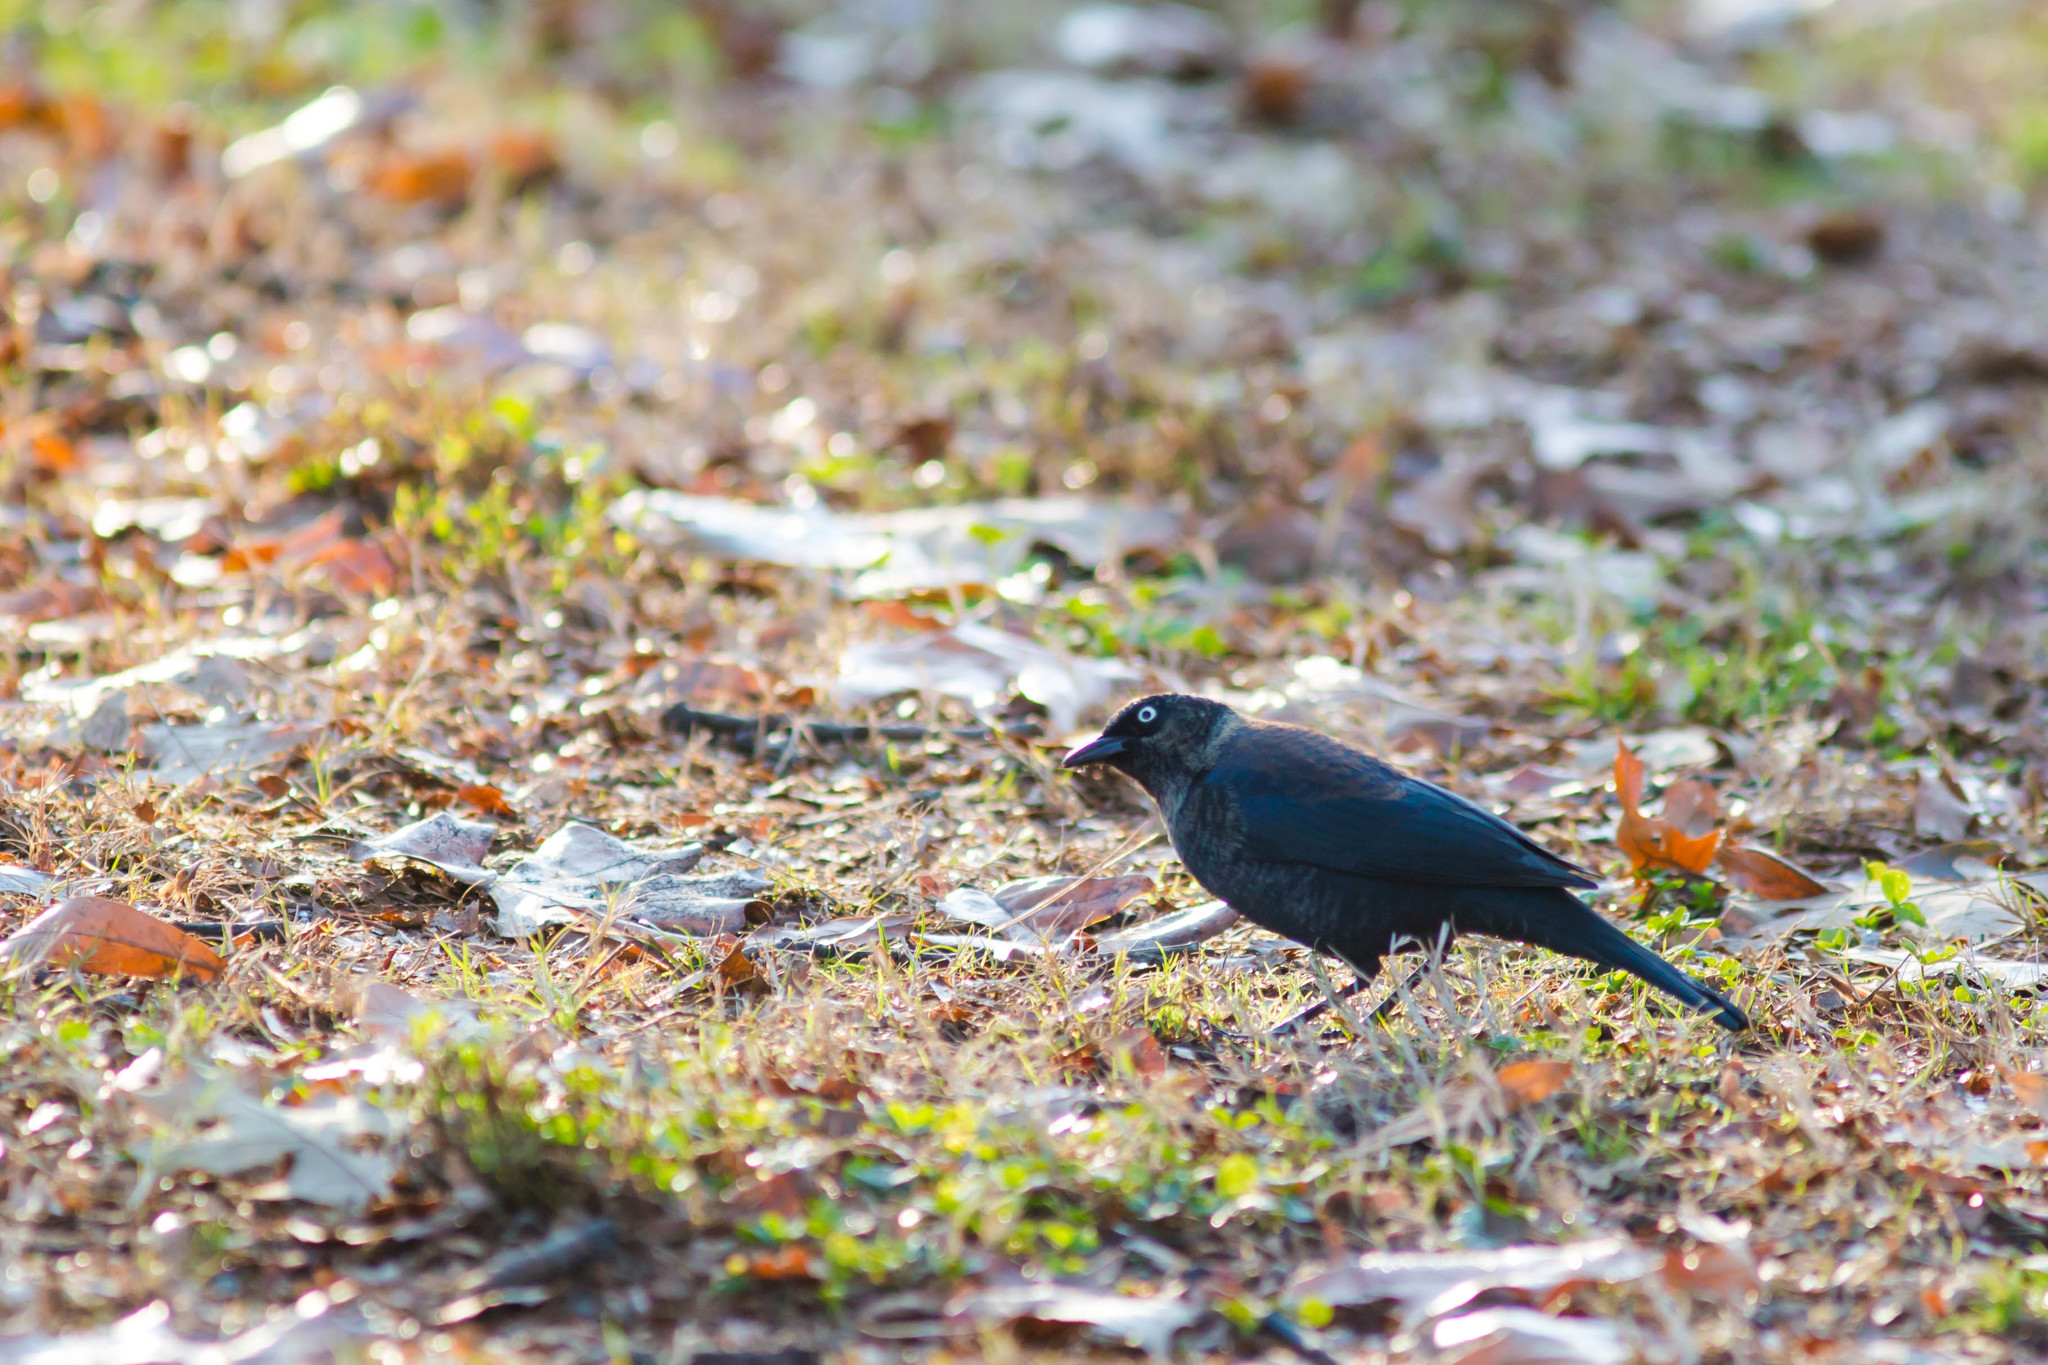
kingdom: Animalia
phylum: Chordata
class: Aves
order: Passeriformes
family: Icteridae
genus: Euphagus
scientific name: Euphagus carolinus
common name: Rusty blackbird
